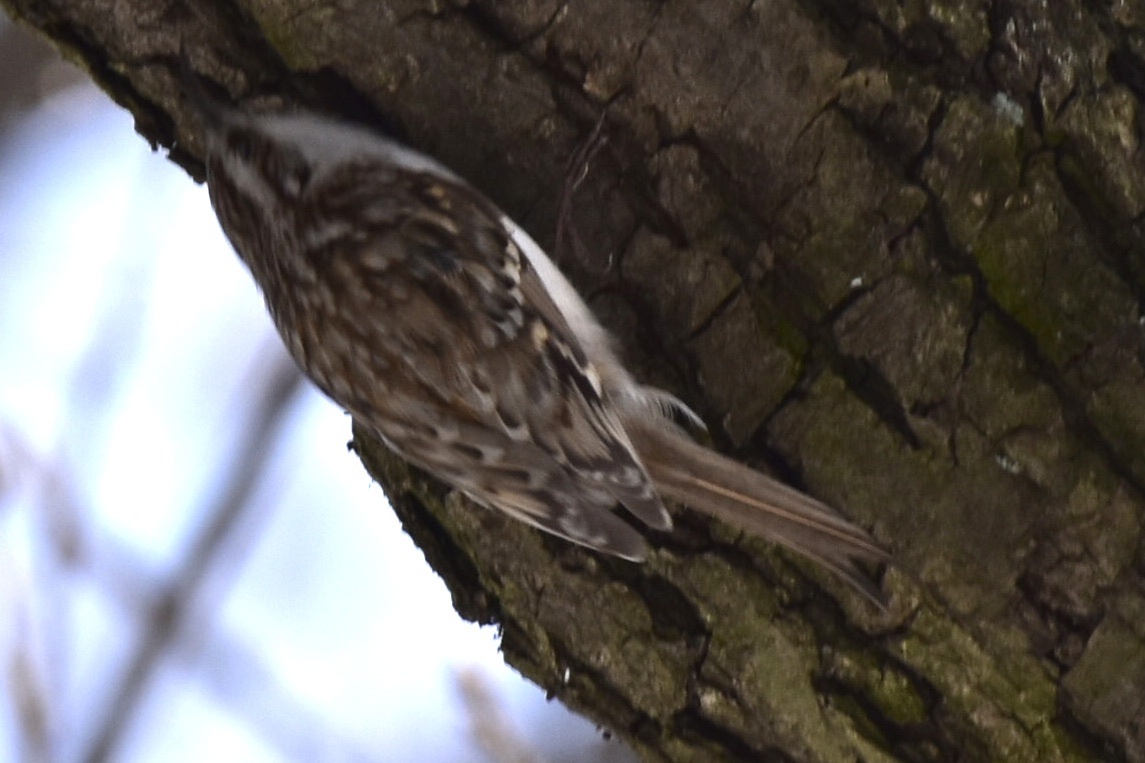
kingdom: Animalia
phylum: Chordata
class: Aves
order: Passeriformes
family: Certhiidae
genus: Certhia
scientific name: Certhia familiaris
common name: Eurasian treecreeper
